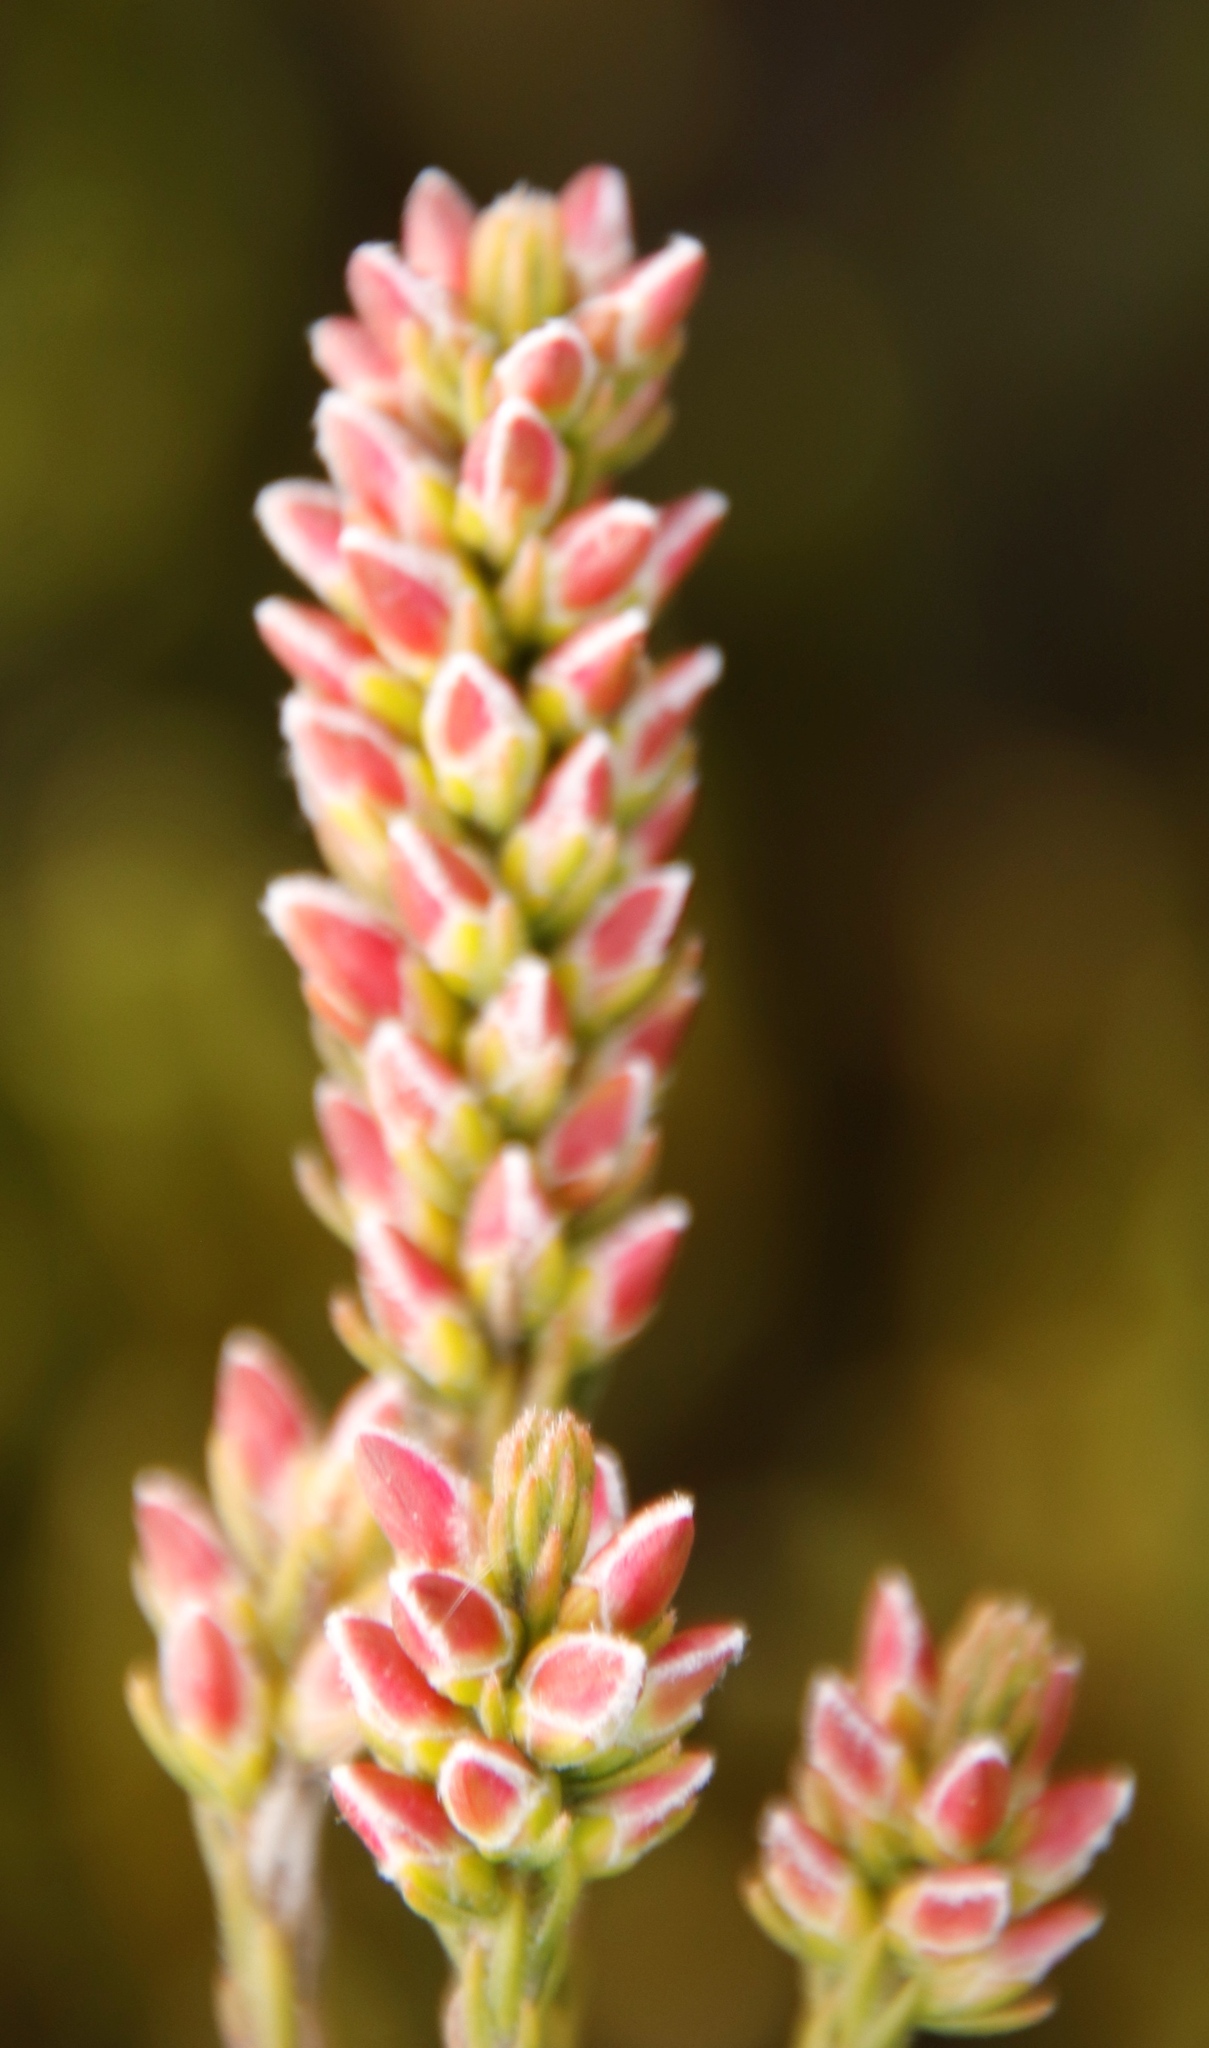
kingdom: Plantae
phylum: Tracheophyta
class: Magnoliopsida
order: Bruniales
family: Bruniaceae
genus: Audouinia
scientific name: Audouinia capitata
